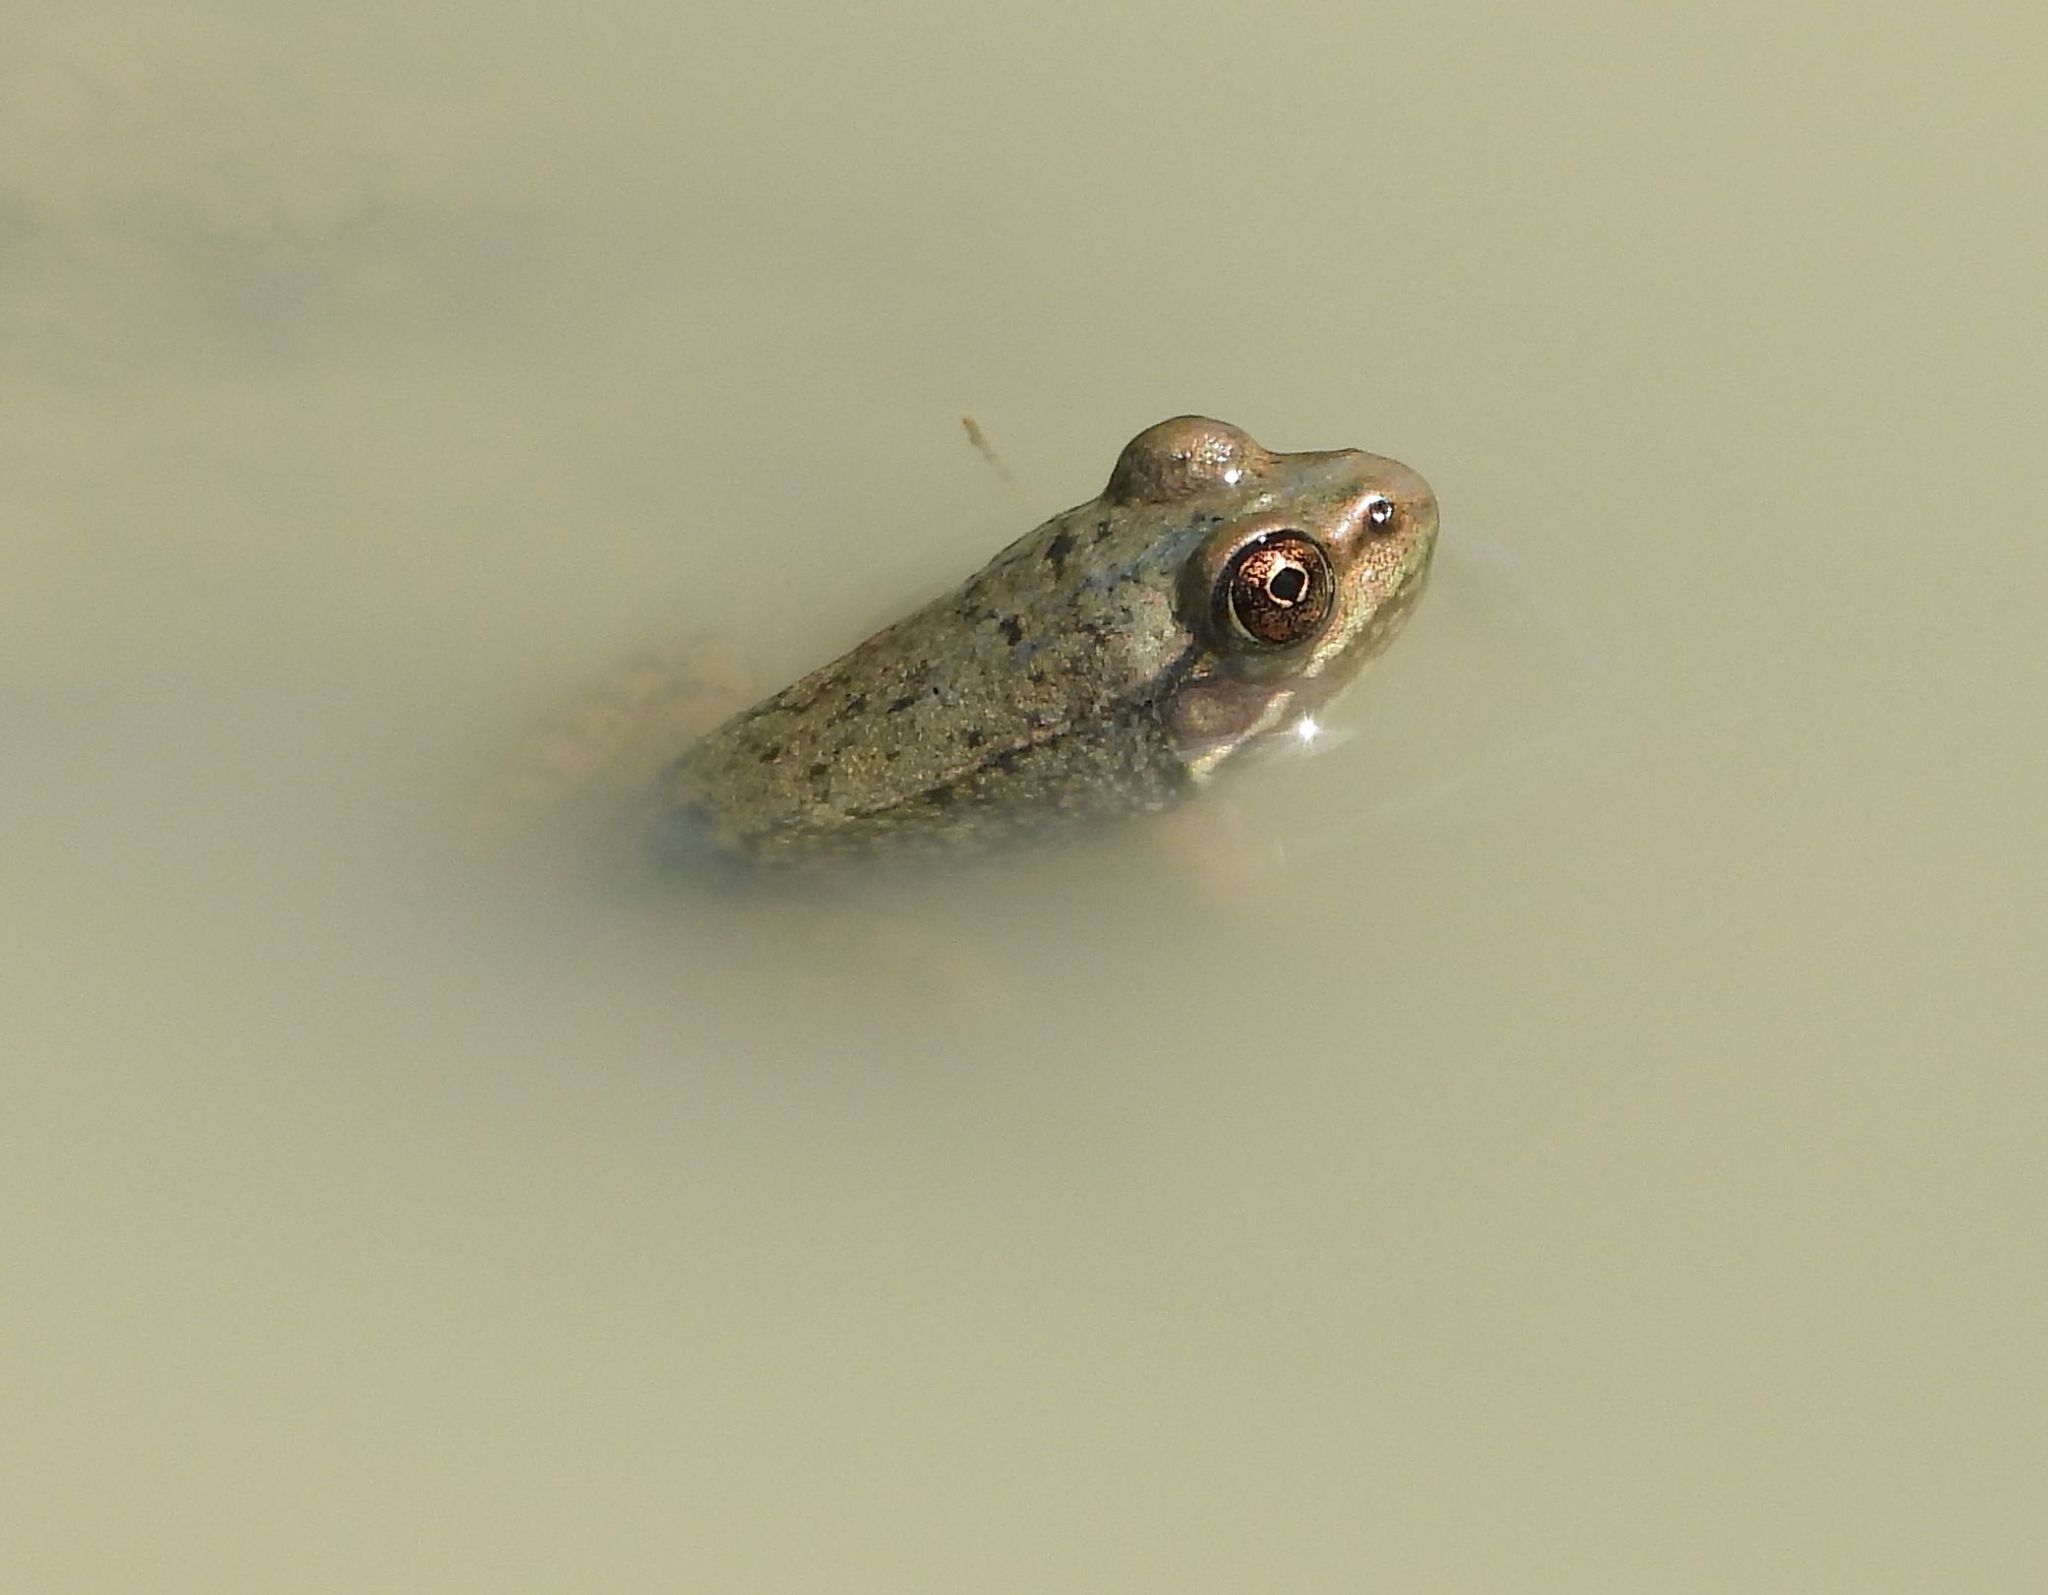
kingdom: Animalia
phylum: Chordata
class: Amphibia
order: Anura
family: Ranidae
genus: Lithobates
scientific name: Lithobates clamitans
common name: Green frog
